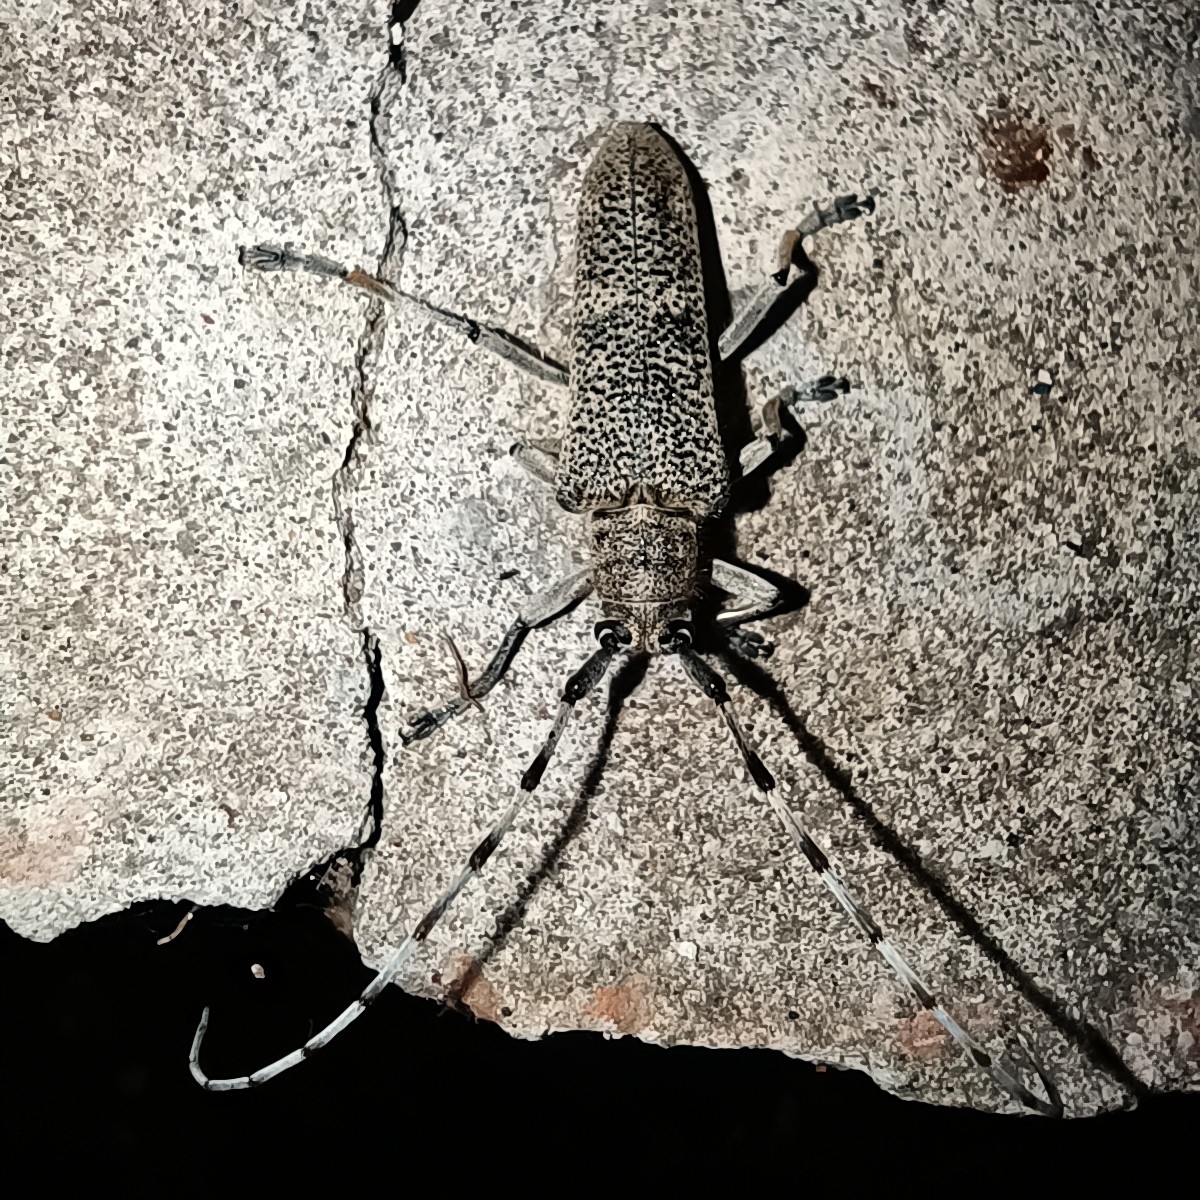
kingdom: Animalia
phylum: Arthropoda
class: Insecta
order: Coleoptera
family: Cerambycidae
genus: Saperda
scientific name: Saperda carcharias
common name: Poplar borer
